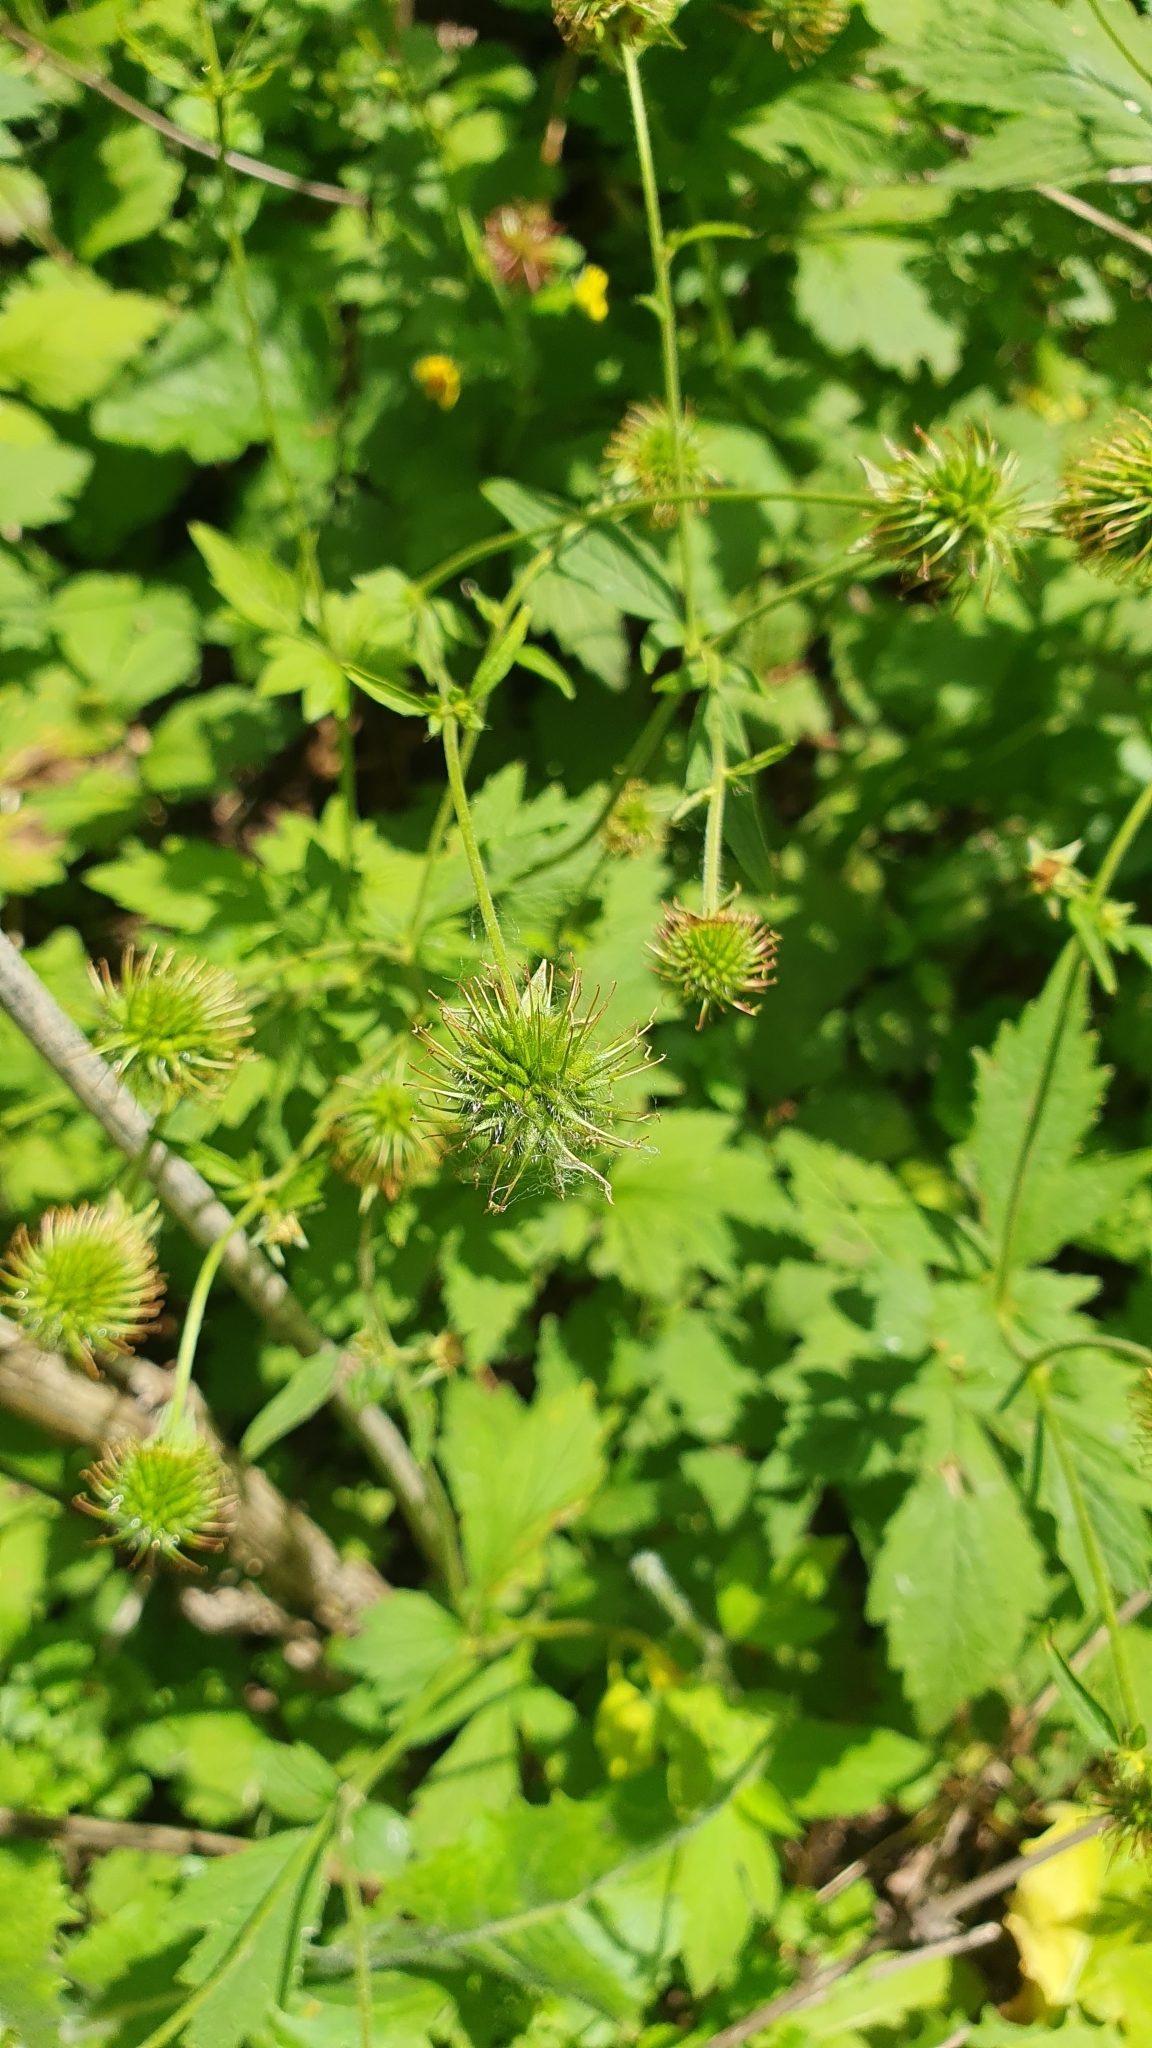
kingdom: Plantae
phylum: Tracheophyta
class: Magnoliopsida
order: Rosales
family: Rosaceae
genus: Geum
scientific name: Geum urbanum
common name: Wood avens
